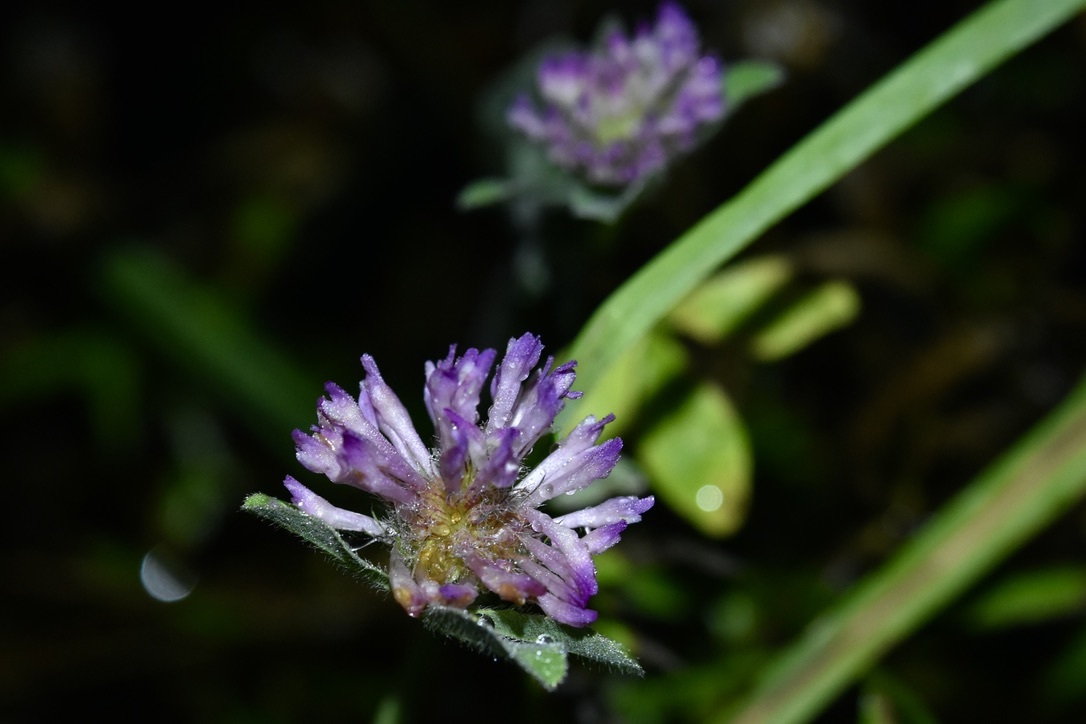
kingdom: Plantae
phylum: Tracheophyta
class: Magnoliopsida
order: Fabales
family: Fabaceae
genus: Trifolium
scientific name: Trifolium pratense
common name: Red clover
